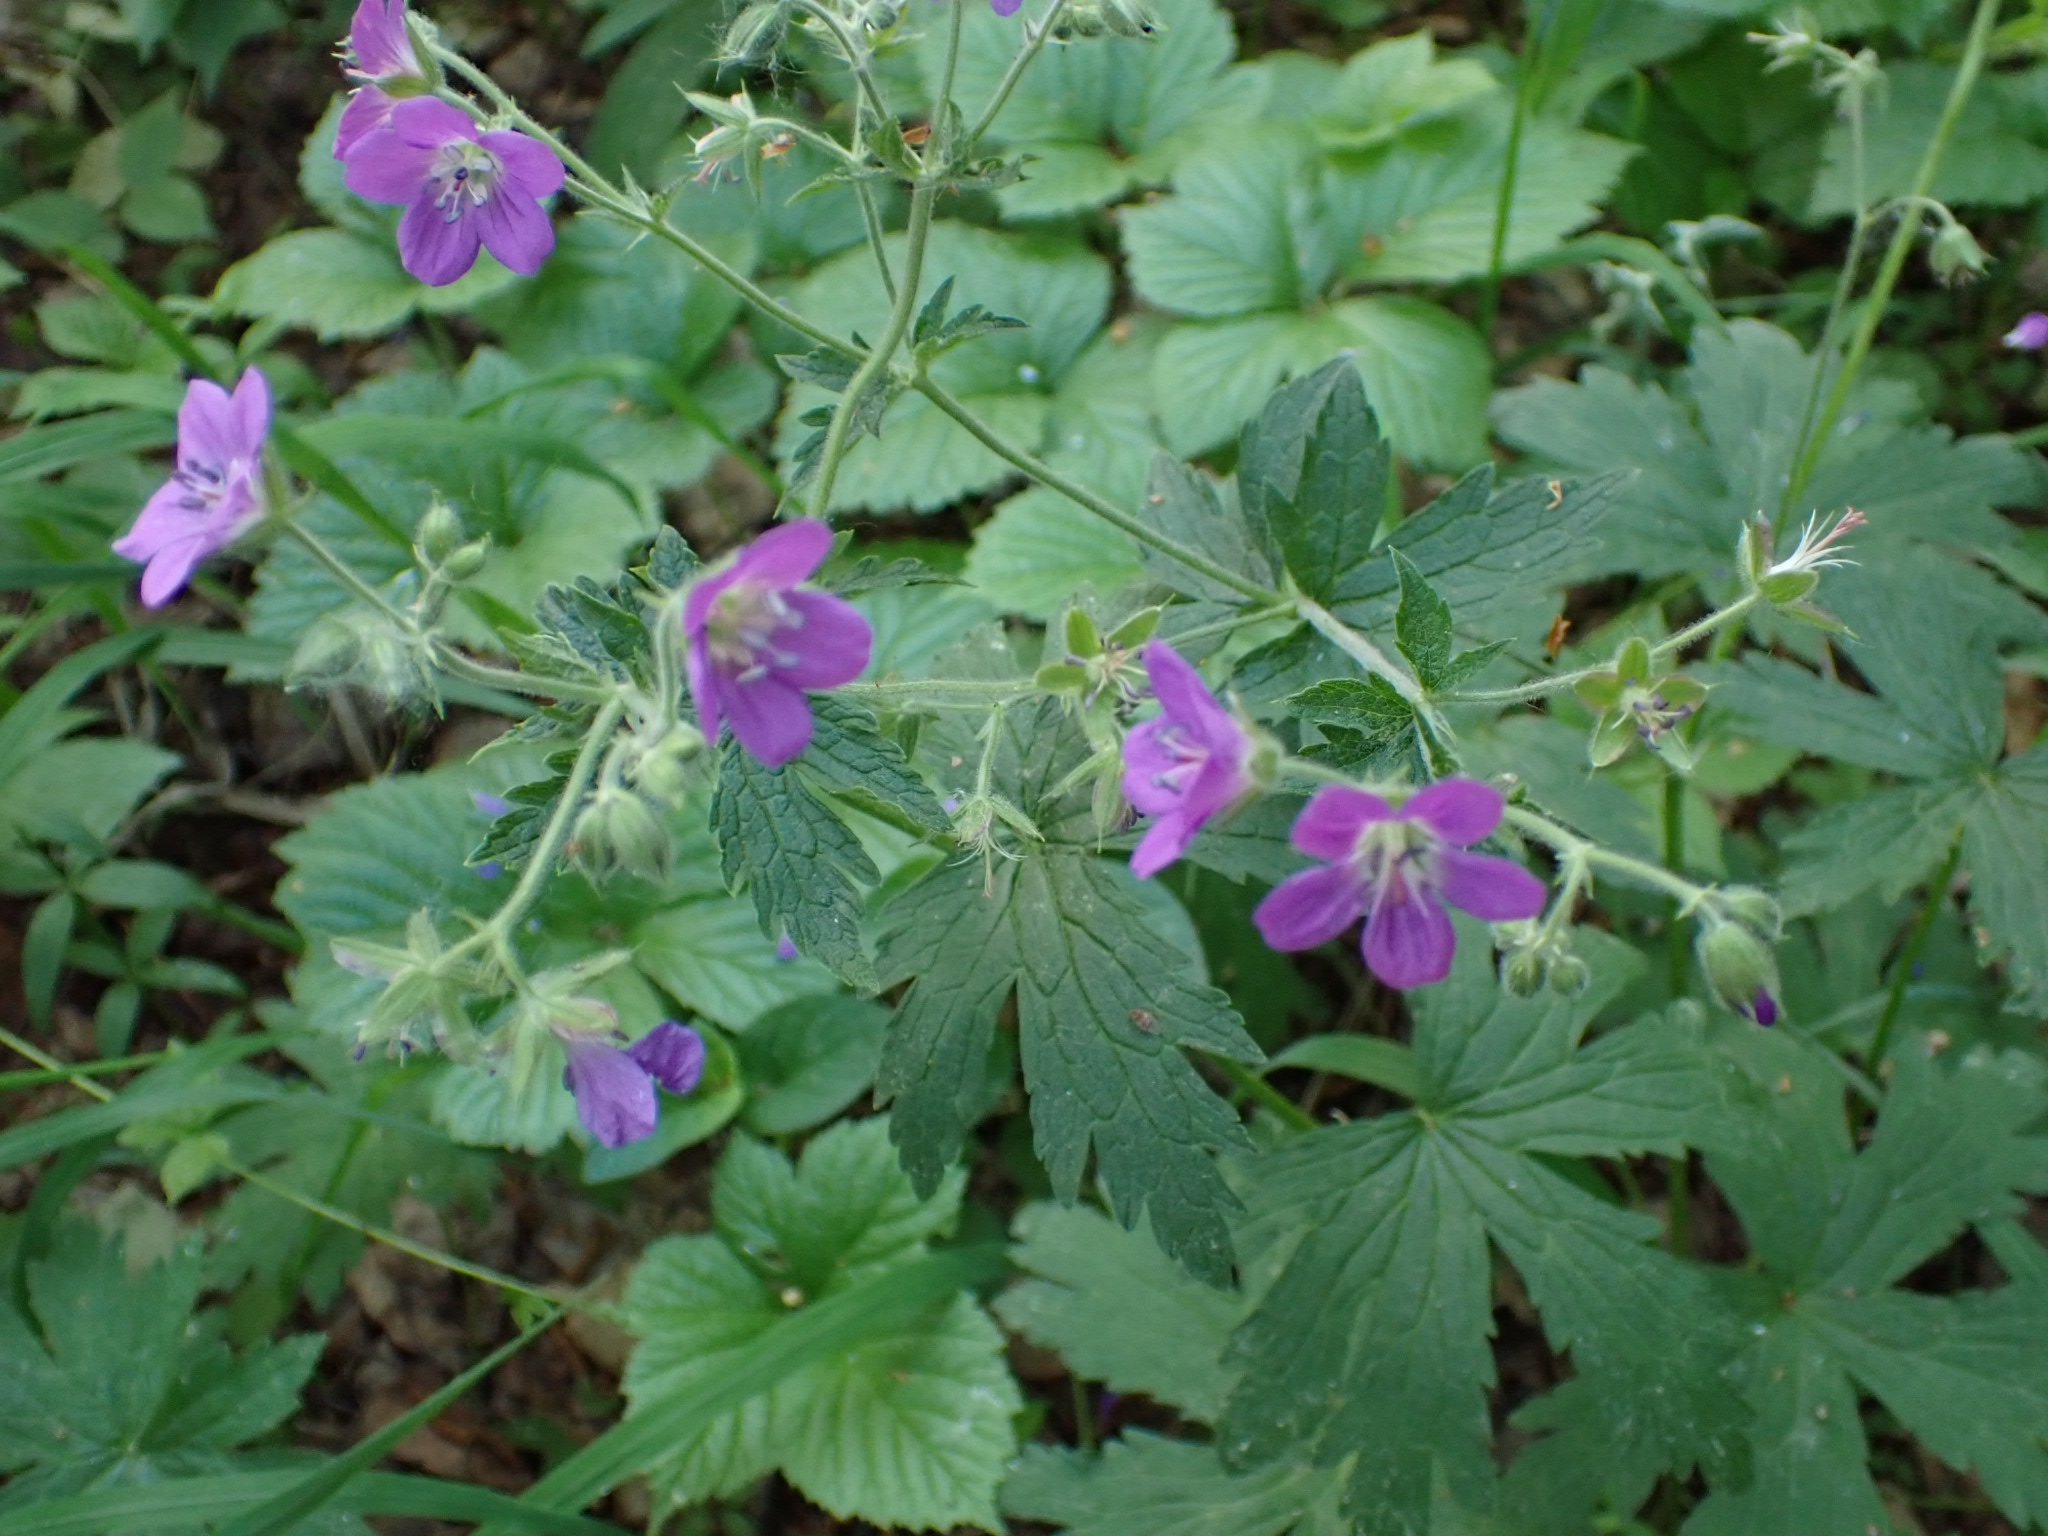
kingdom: Plantae
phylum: Tracheophyta
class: Magnoliopsida
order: Geraniales
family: Geraniaceae
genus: Geranium
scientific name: Geranium sylvaticum
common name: Wood crane's-bill
